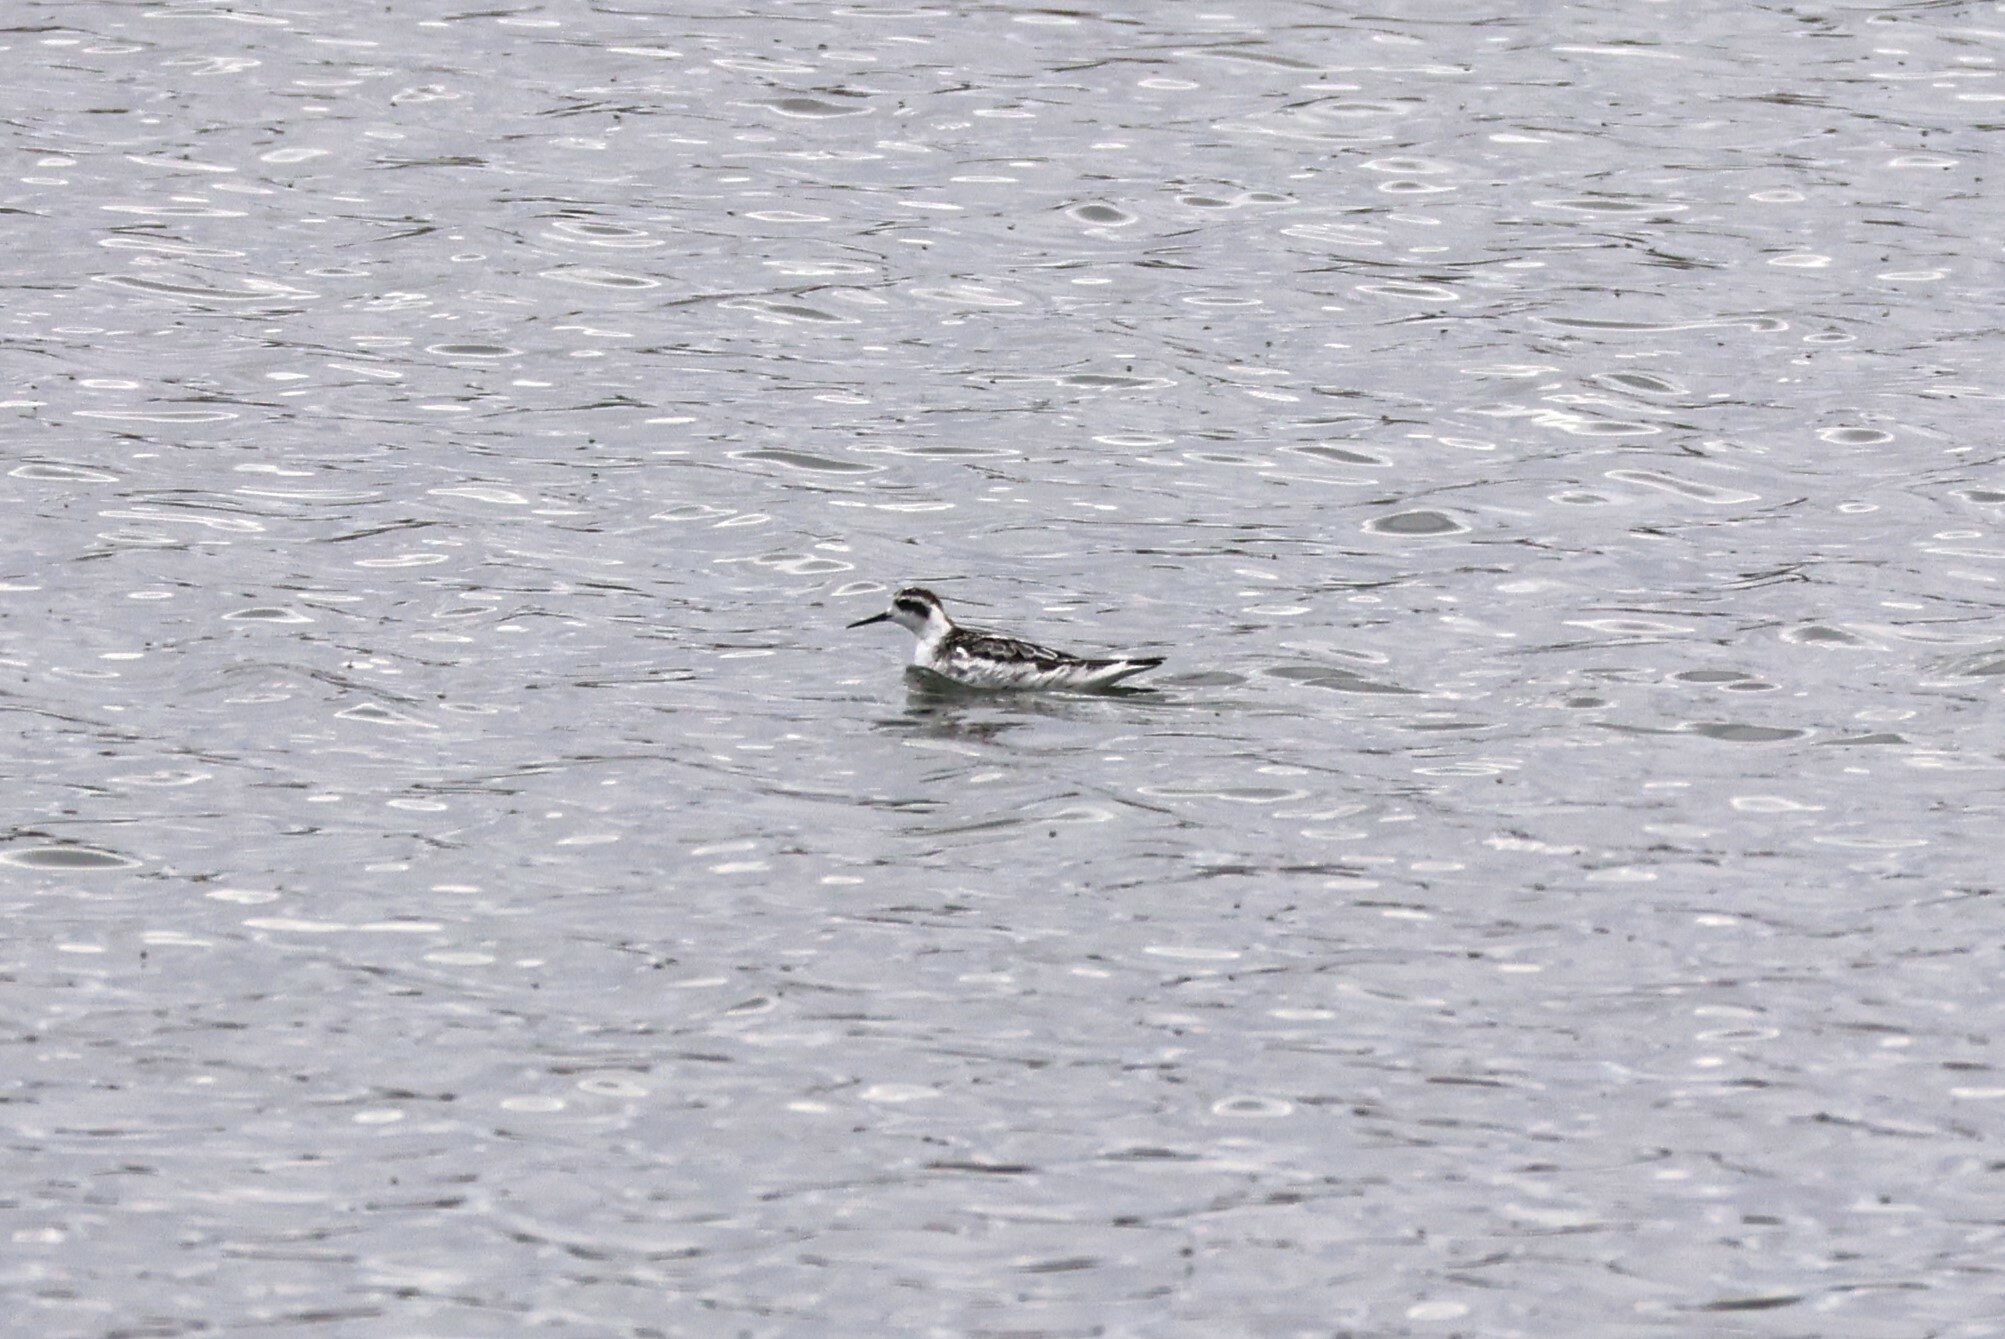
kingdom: Animalia
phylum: Chordata
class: Aves
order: Charadriiformes
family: Scolopacidae
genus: Phalaropus
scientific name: Phalaropus lobatus
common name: Red-necked phalarope
